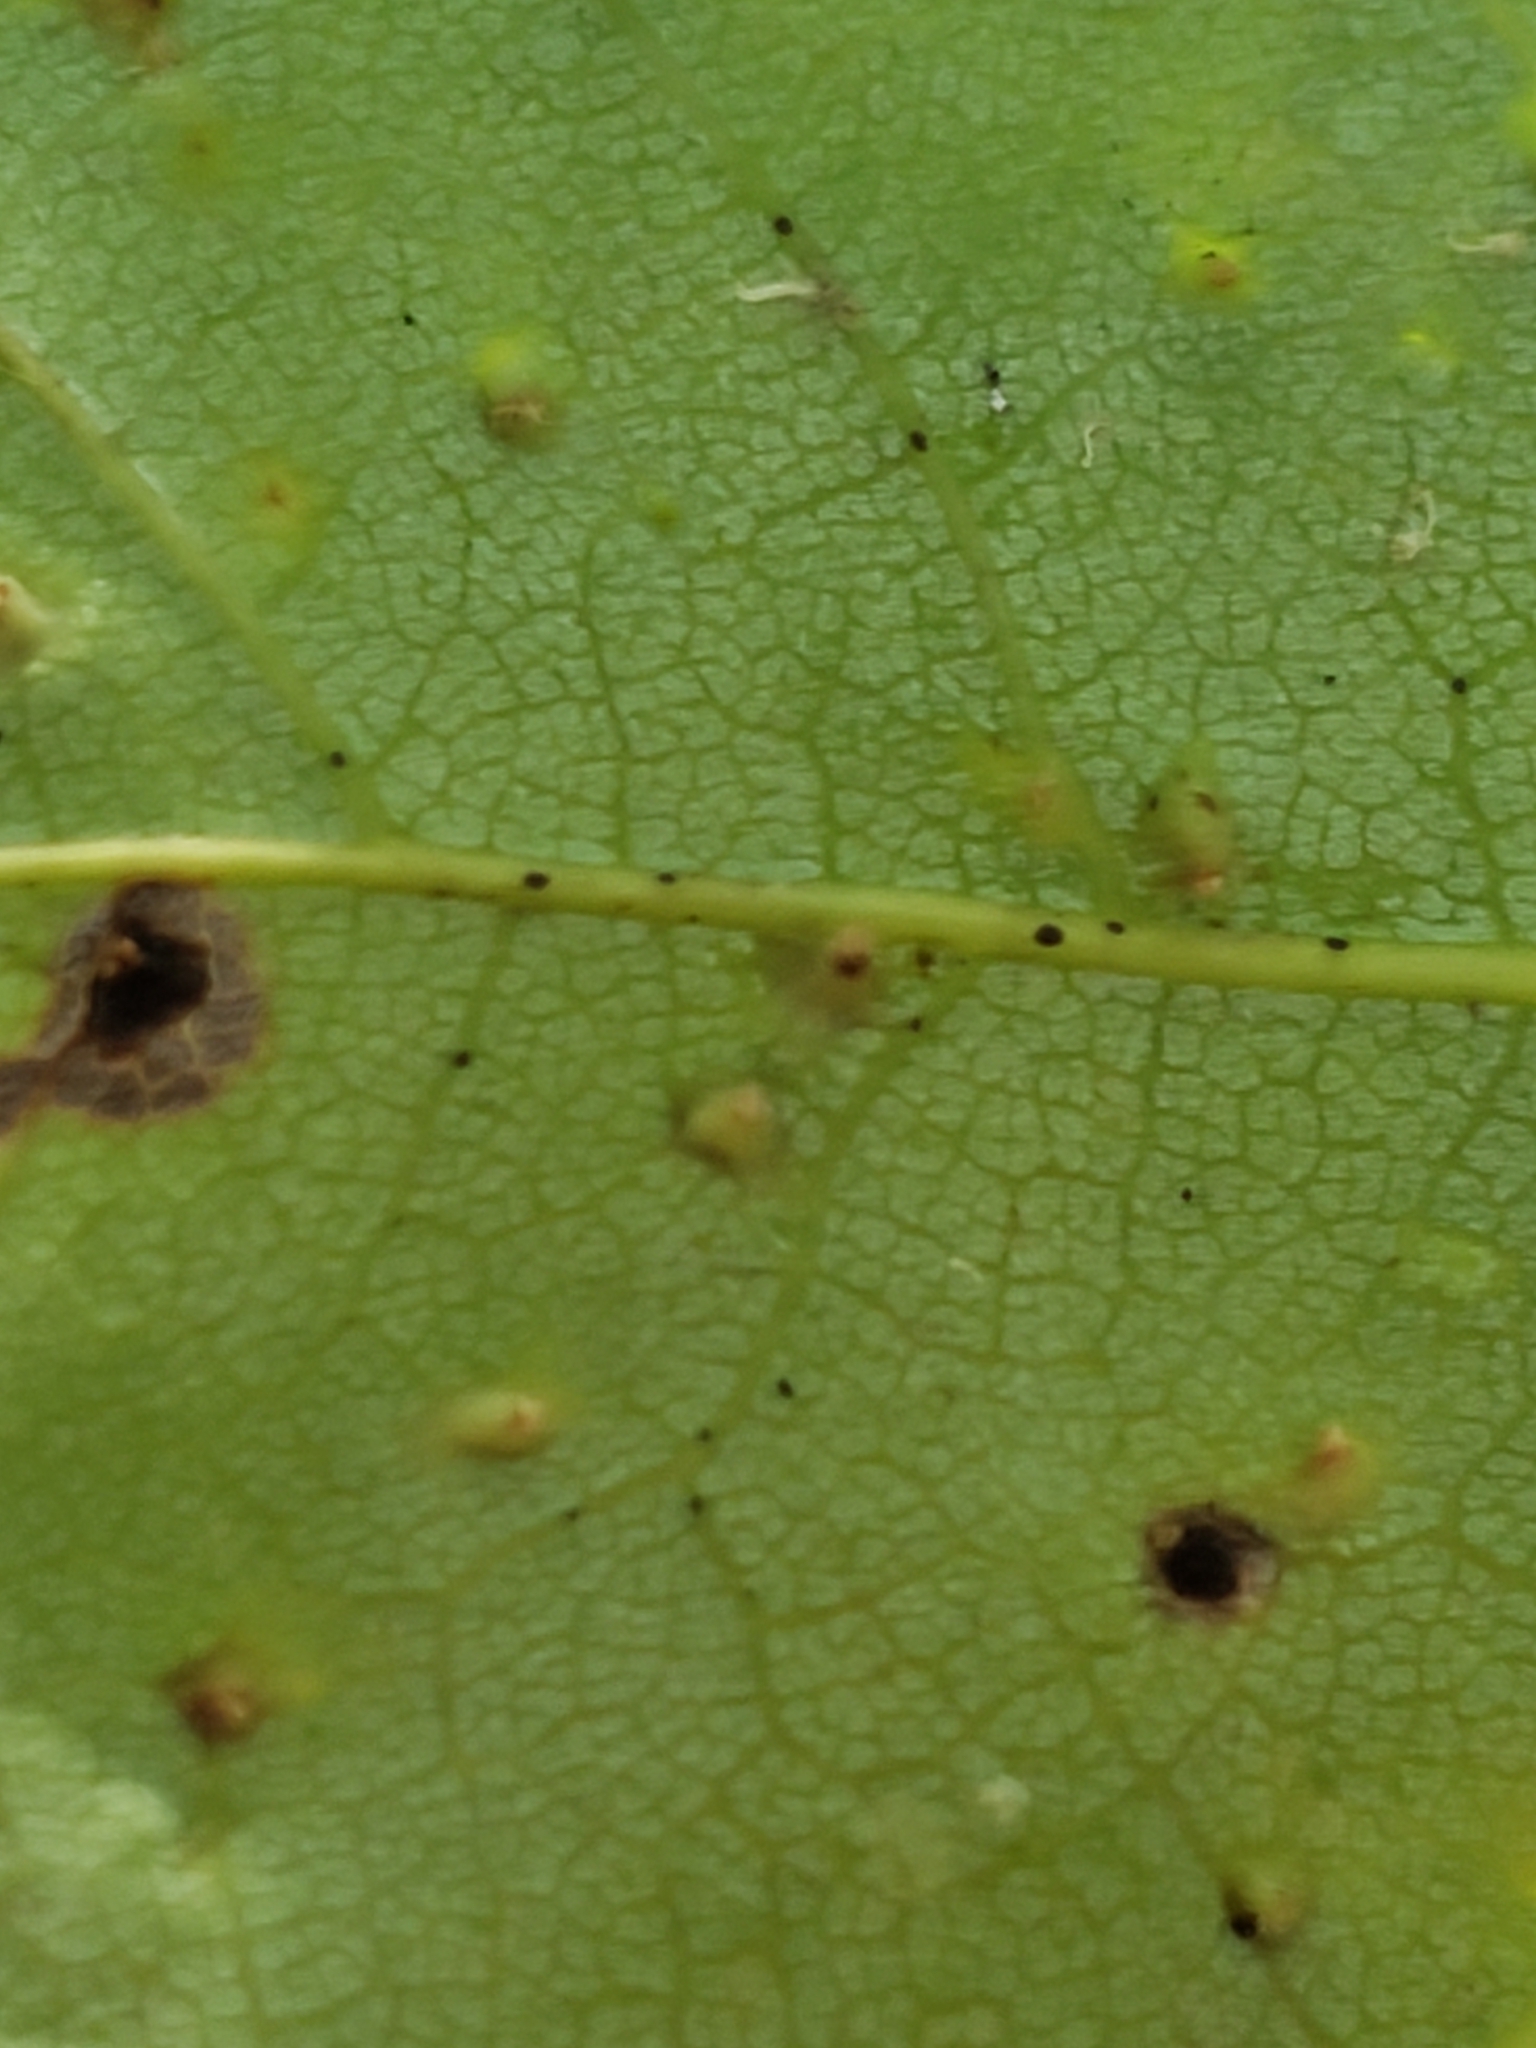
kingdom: Animalia
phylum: Arthropoda
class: Arachnida
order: Trombidiformes
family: Eriophyidae
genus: Vasates
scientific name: Vasates quadripedes
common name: Maple bladder gall mite
